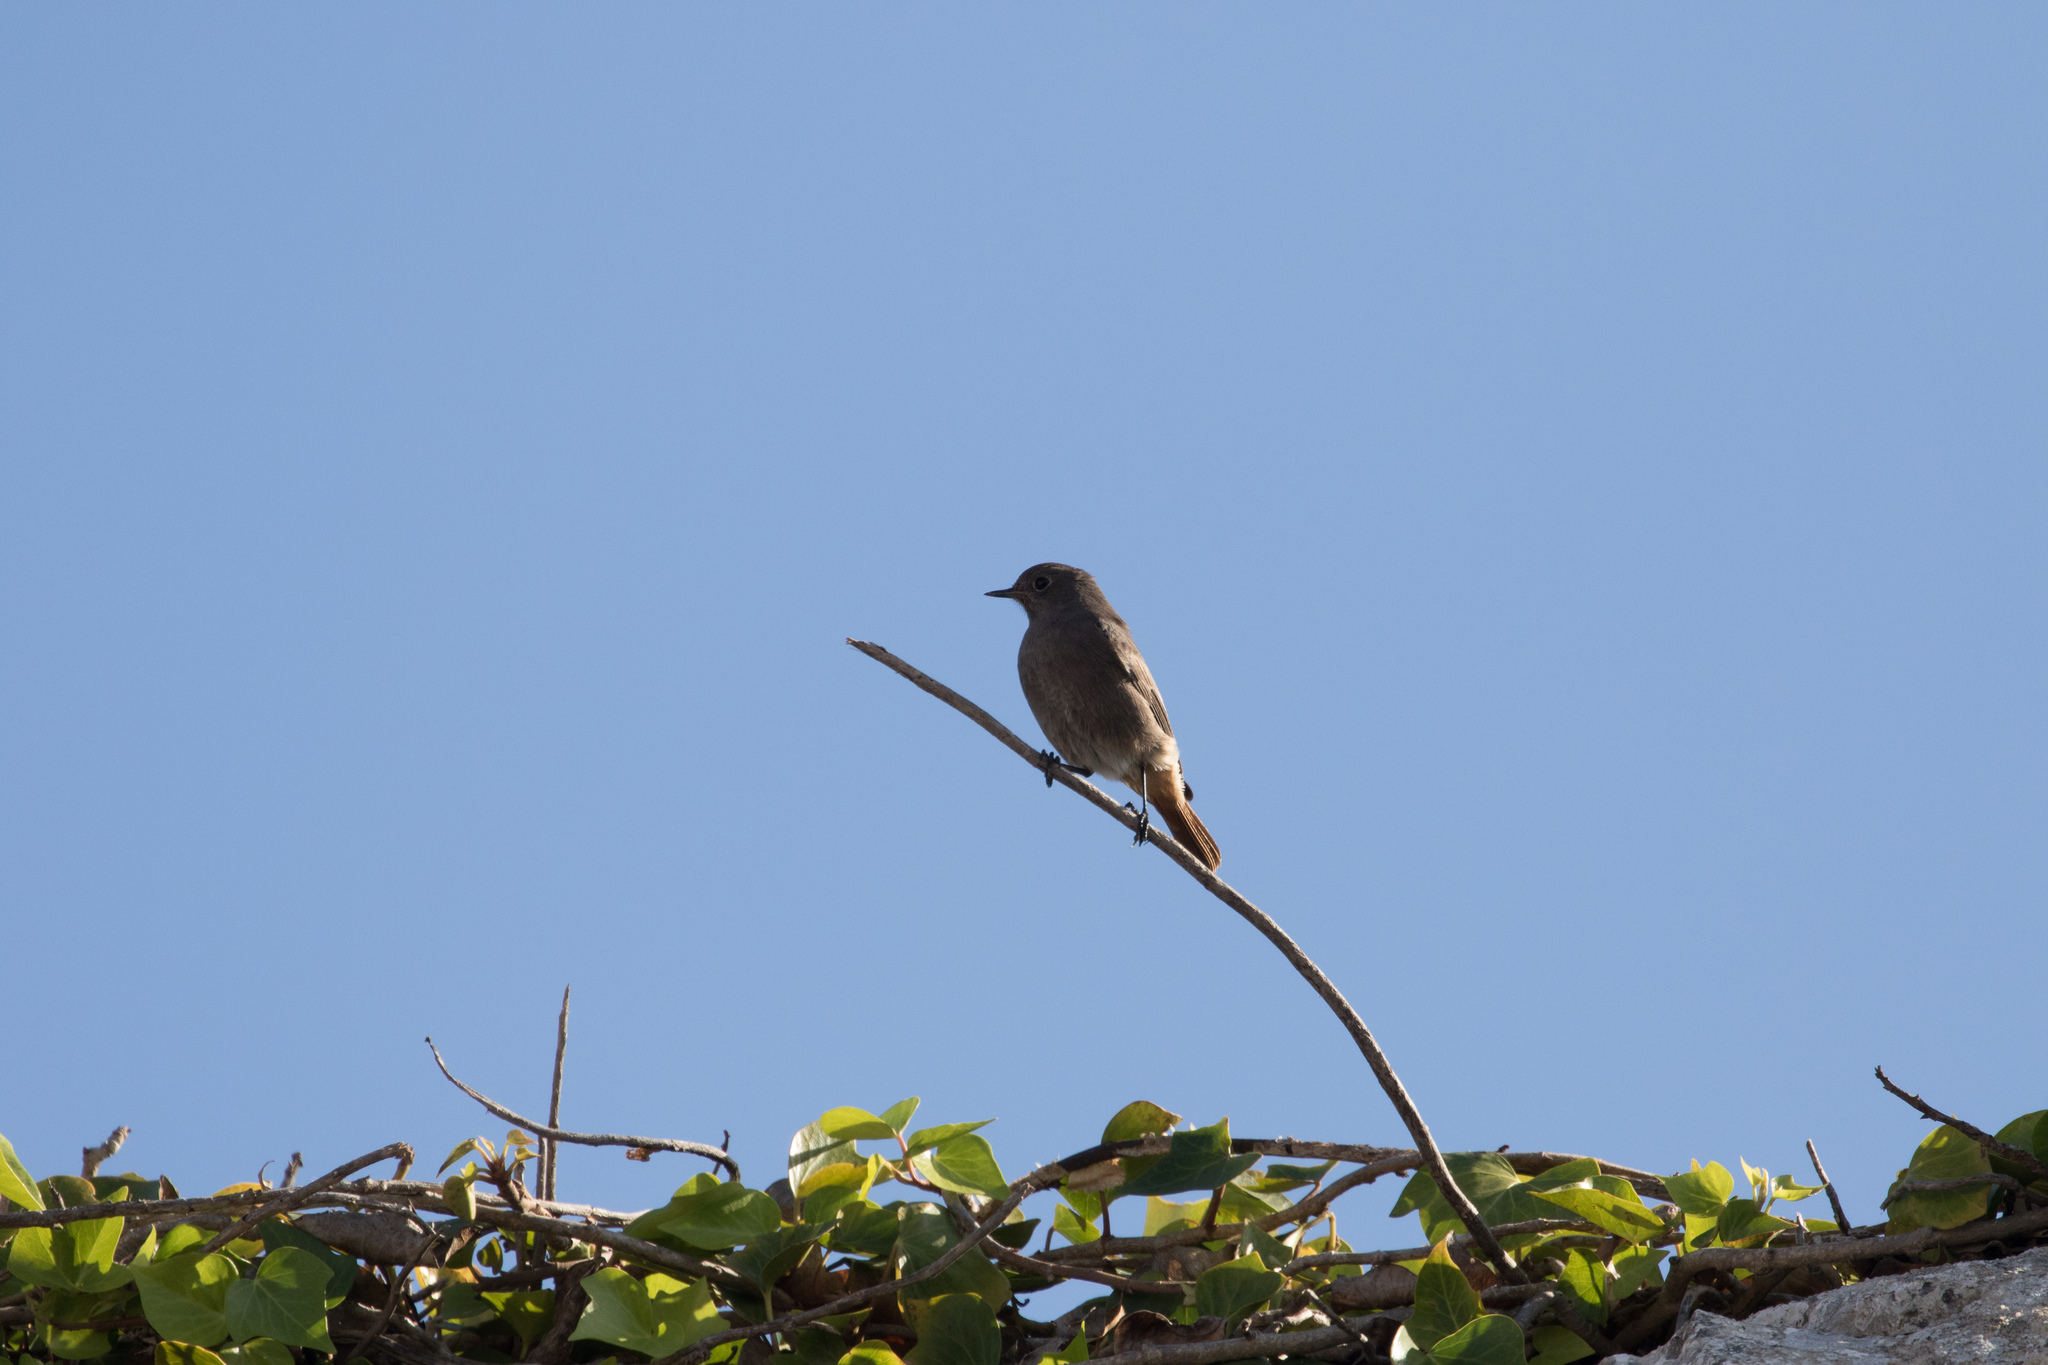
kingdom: Animalia
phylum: Chordata
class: Aves
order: Passeriformes
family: Muscicapidae
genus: Phoenicurus
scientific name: Phoenicurus ochruros
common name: Black redstart
